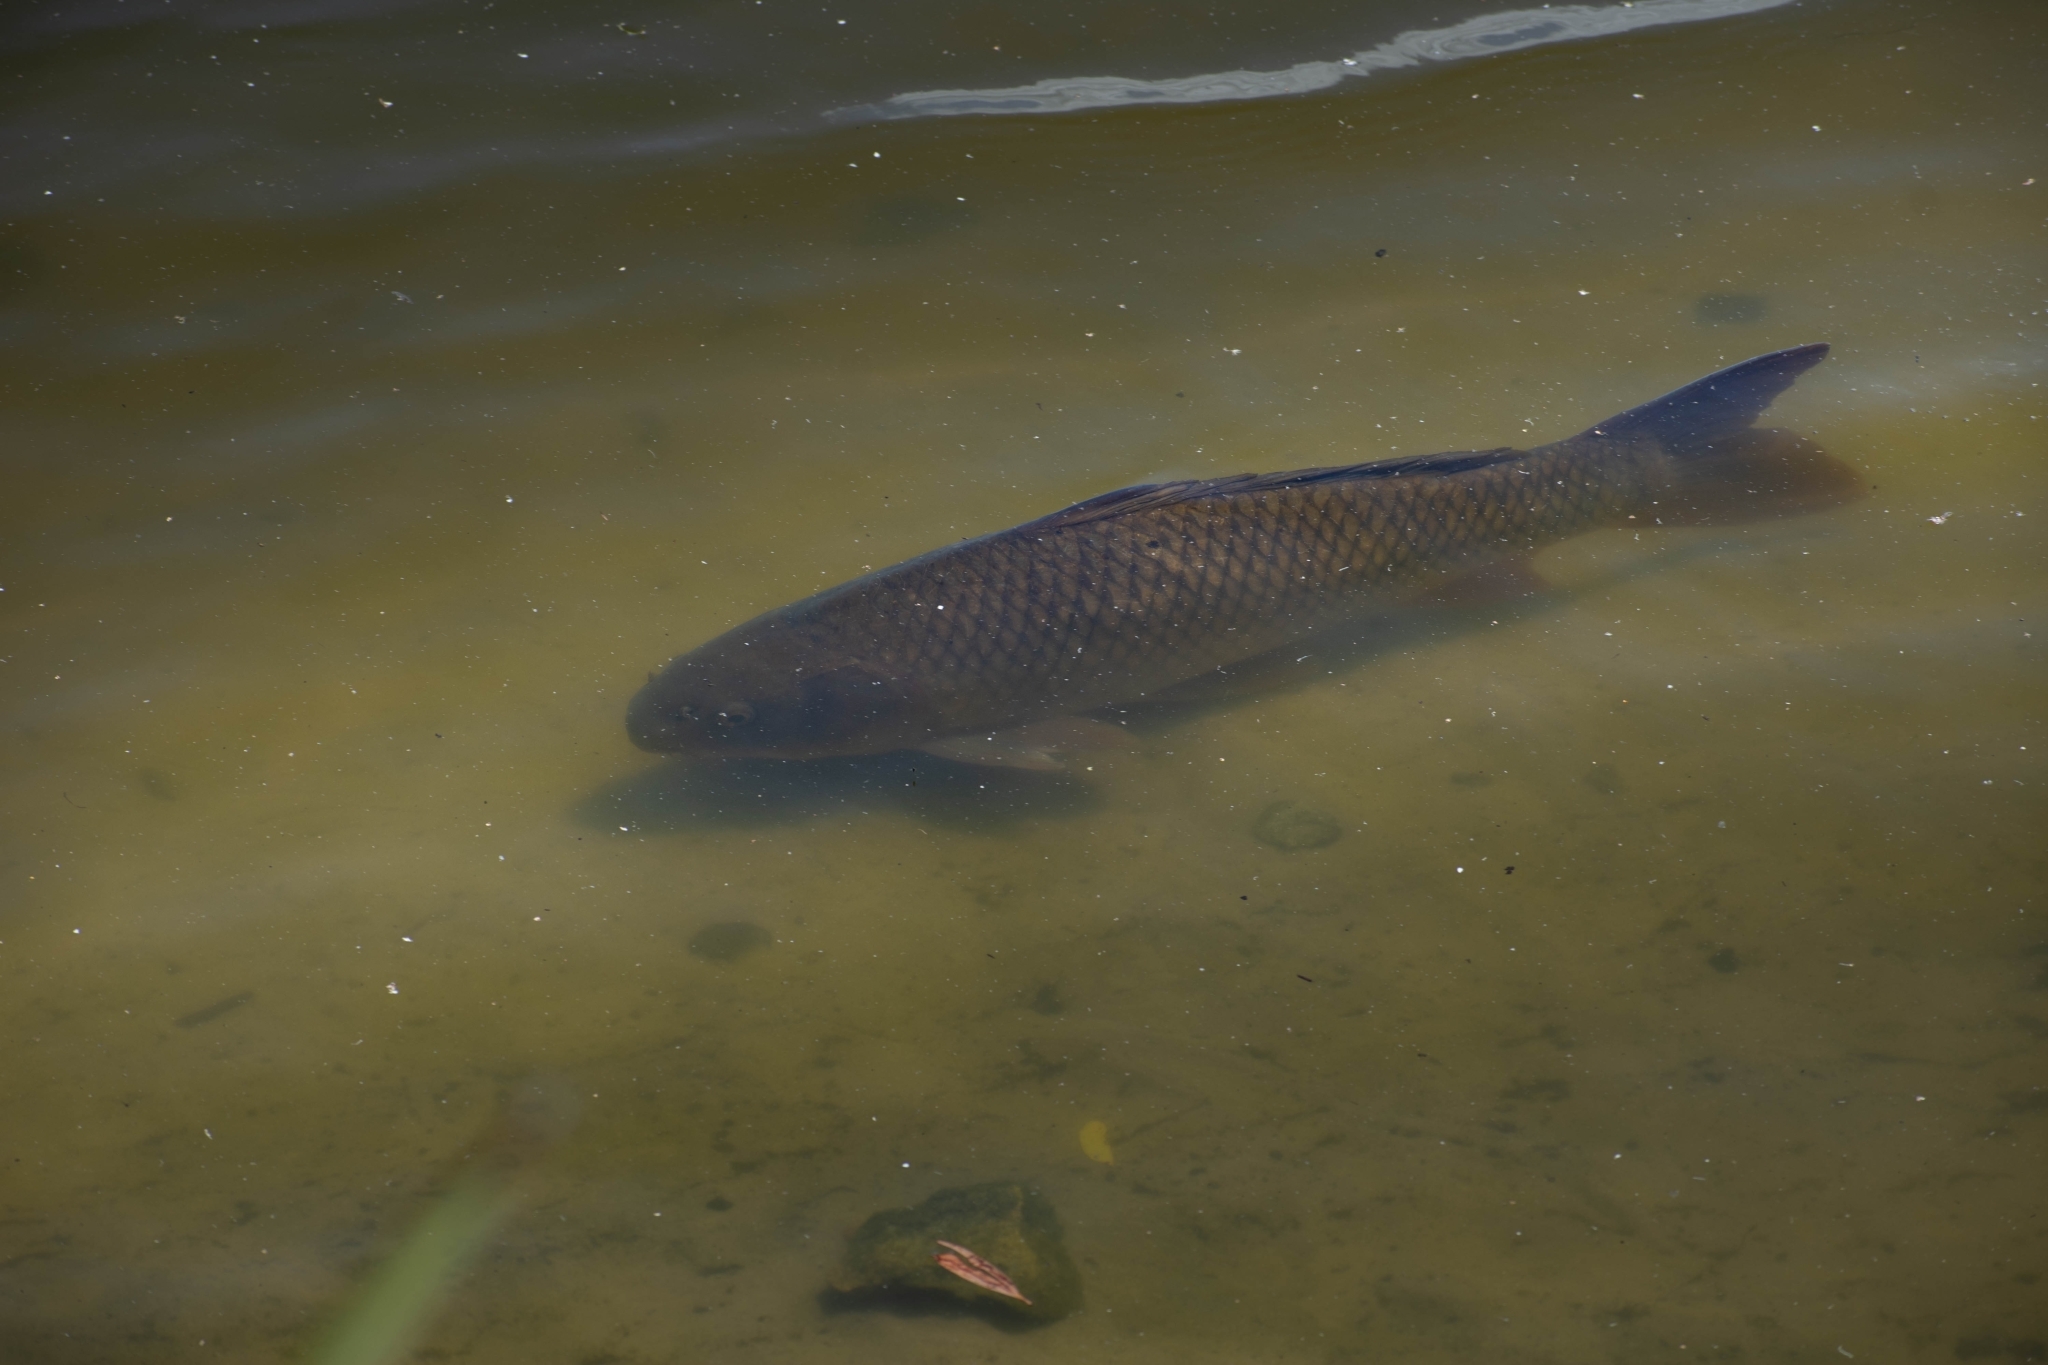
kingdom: Animalia
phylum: Chordata
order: Cypriniformes
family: Cyprinidae
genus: Cyprinus
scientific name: Cyprinus carpio
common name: Common carp
